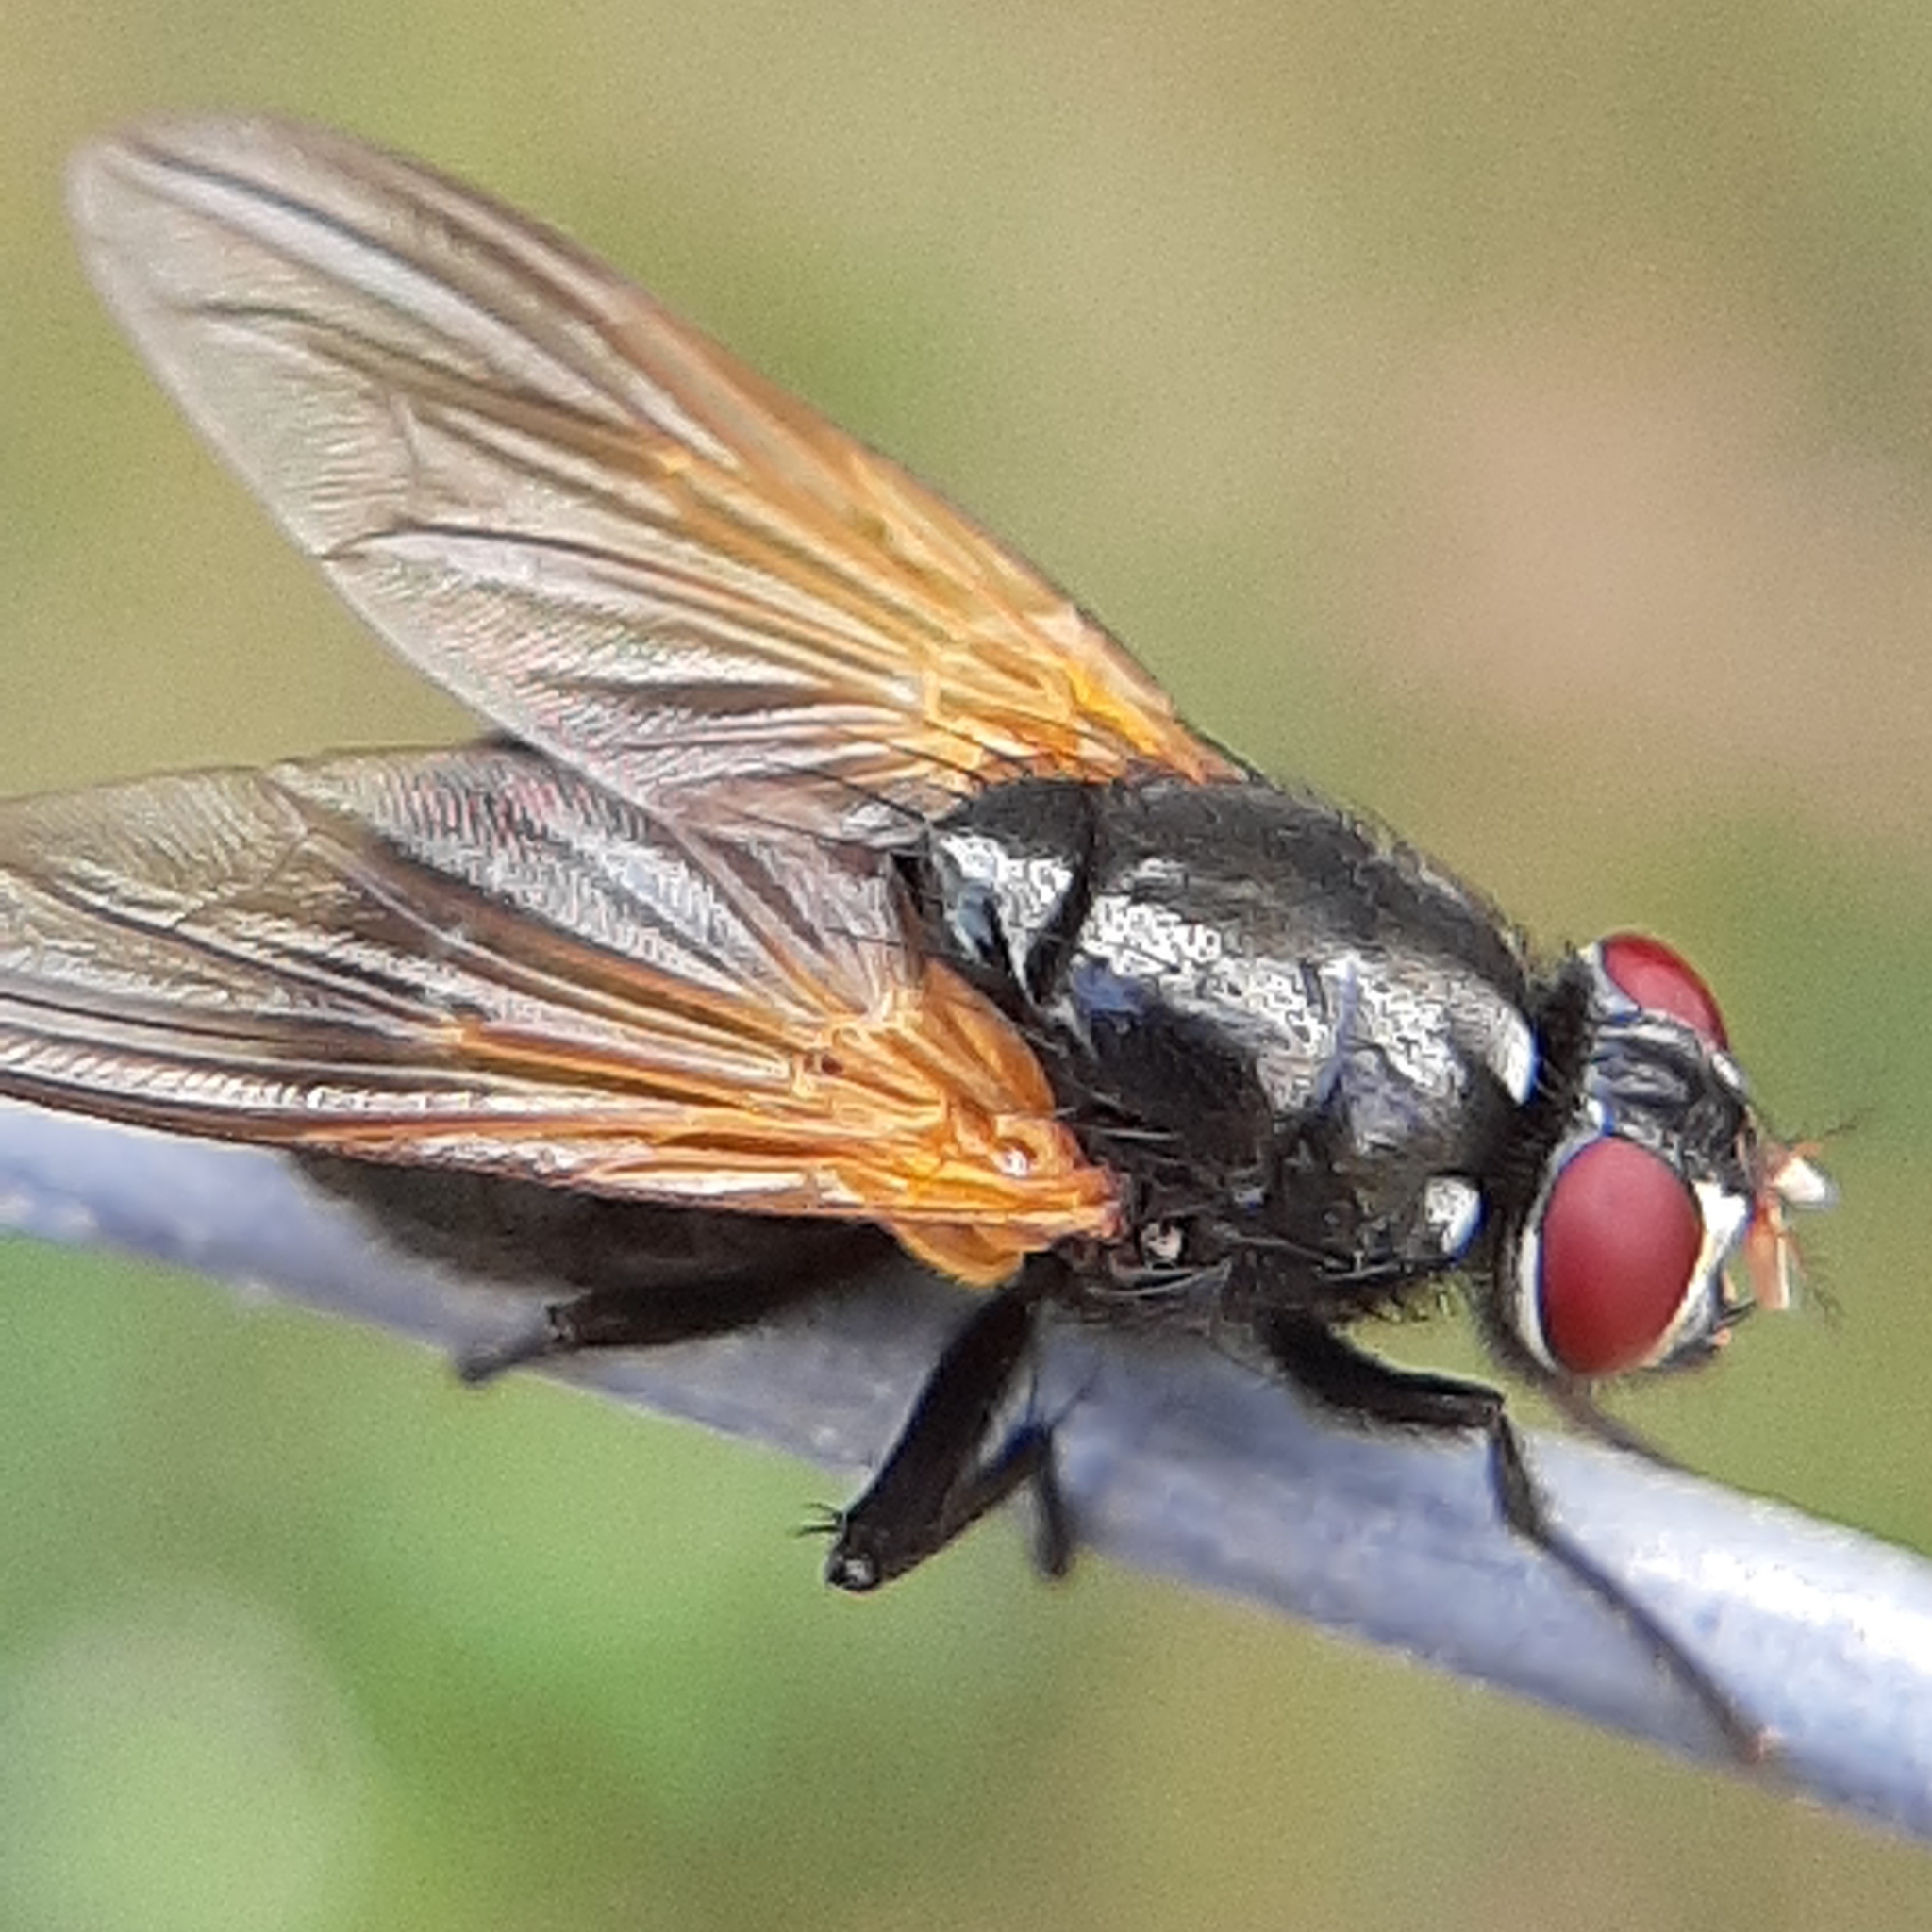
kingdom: Animalia
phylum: Arthropoda
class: Insecta
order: Diptera
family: Muscidae
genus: Mesembrina
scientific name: Mesembrina latreillii
